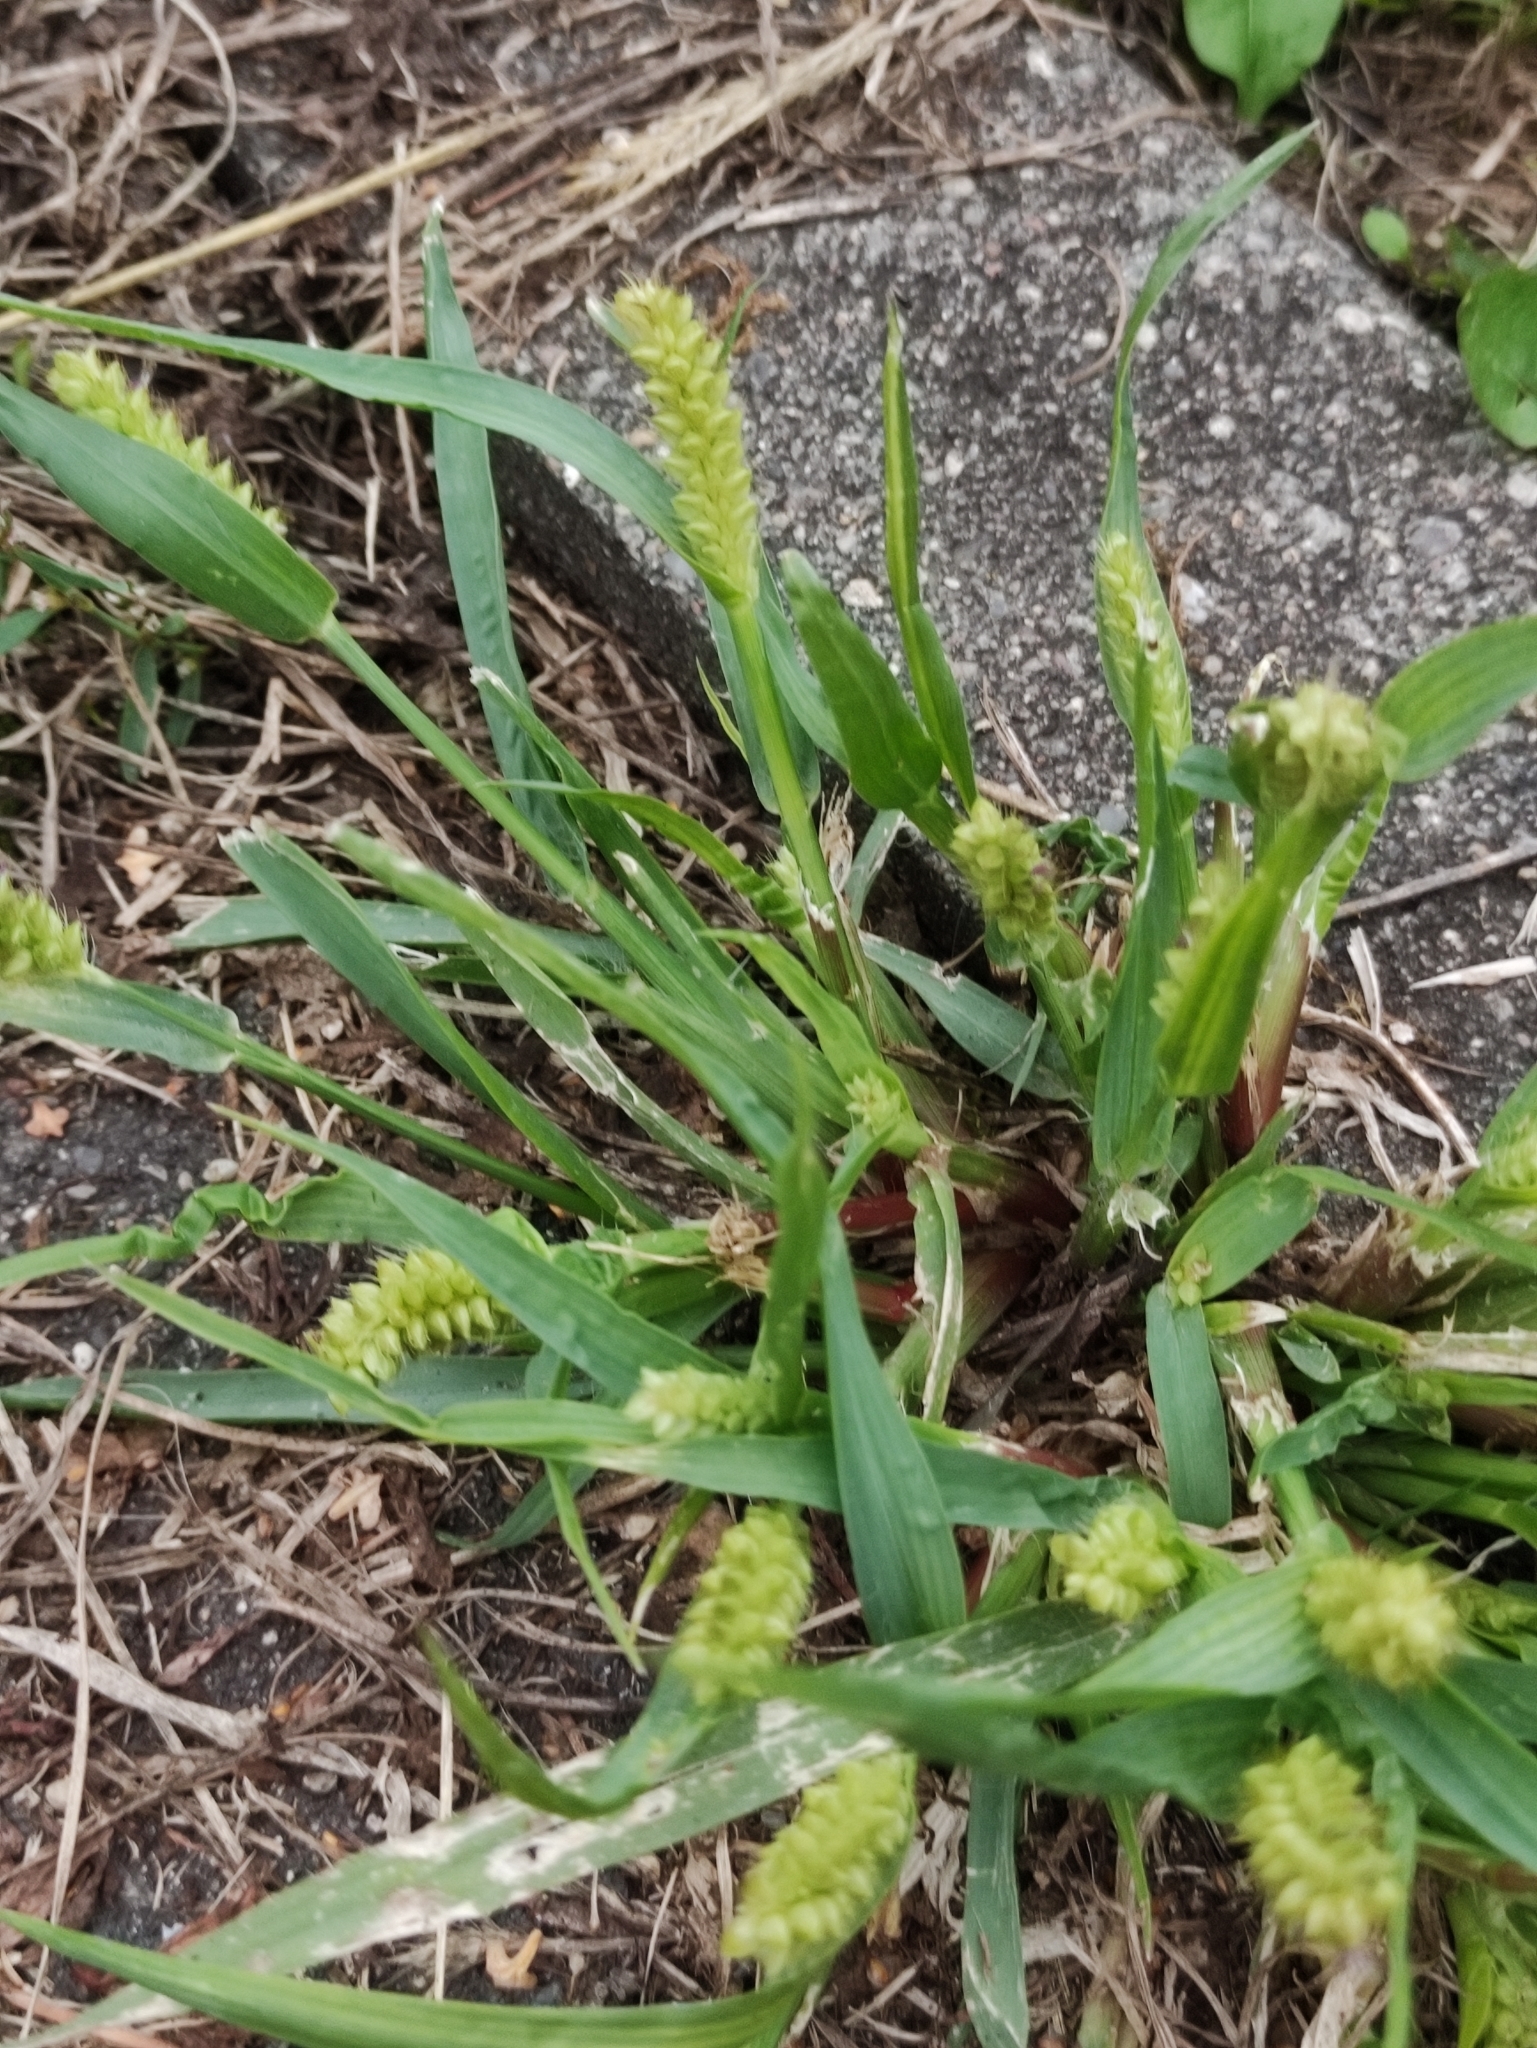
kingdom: Plantae
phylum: Tracheophyta
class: Liliopsida
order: Poales
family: Poaceae
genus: Setaria
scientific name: Setaria viridis
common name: Green bristlegrass
